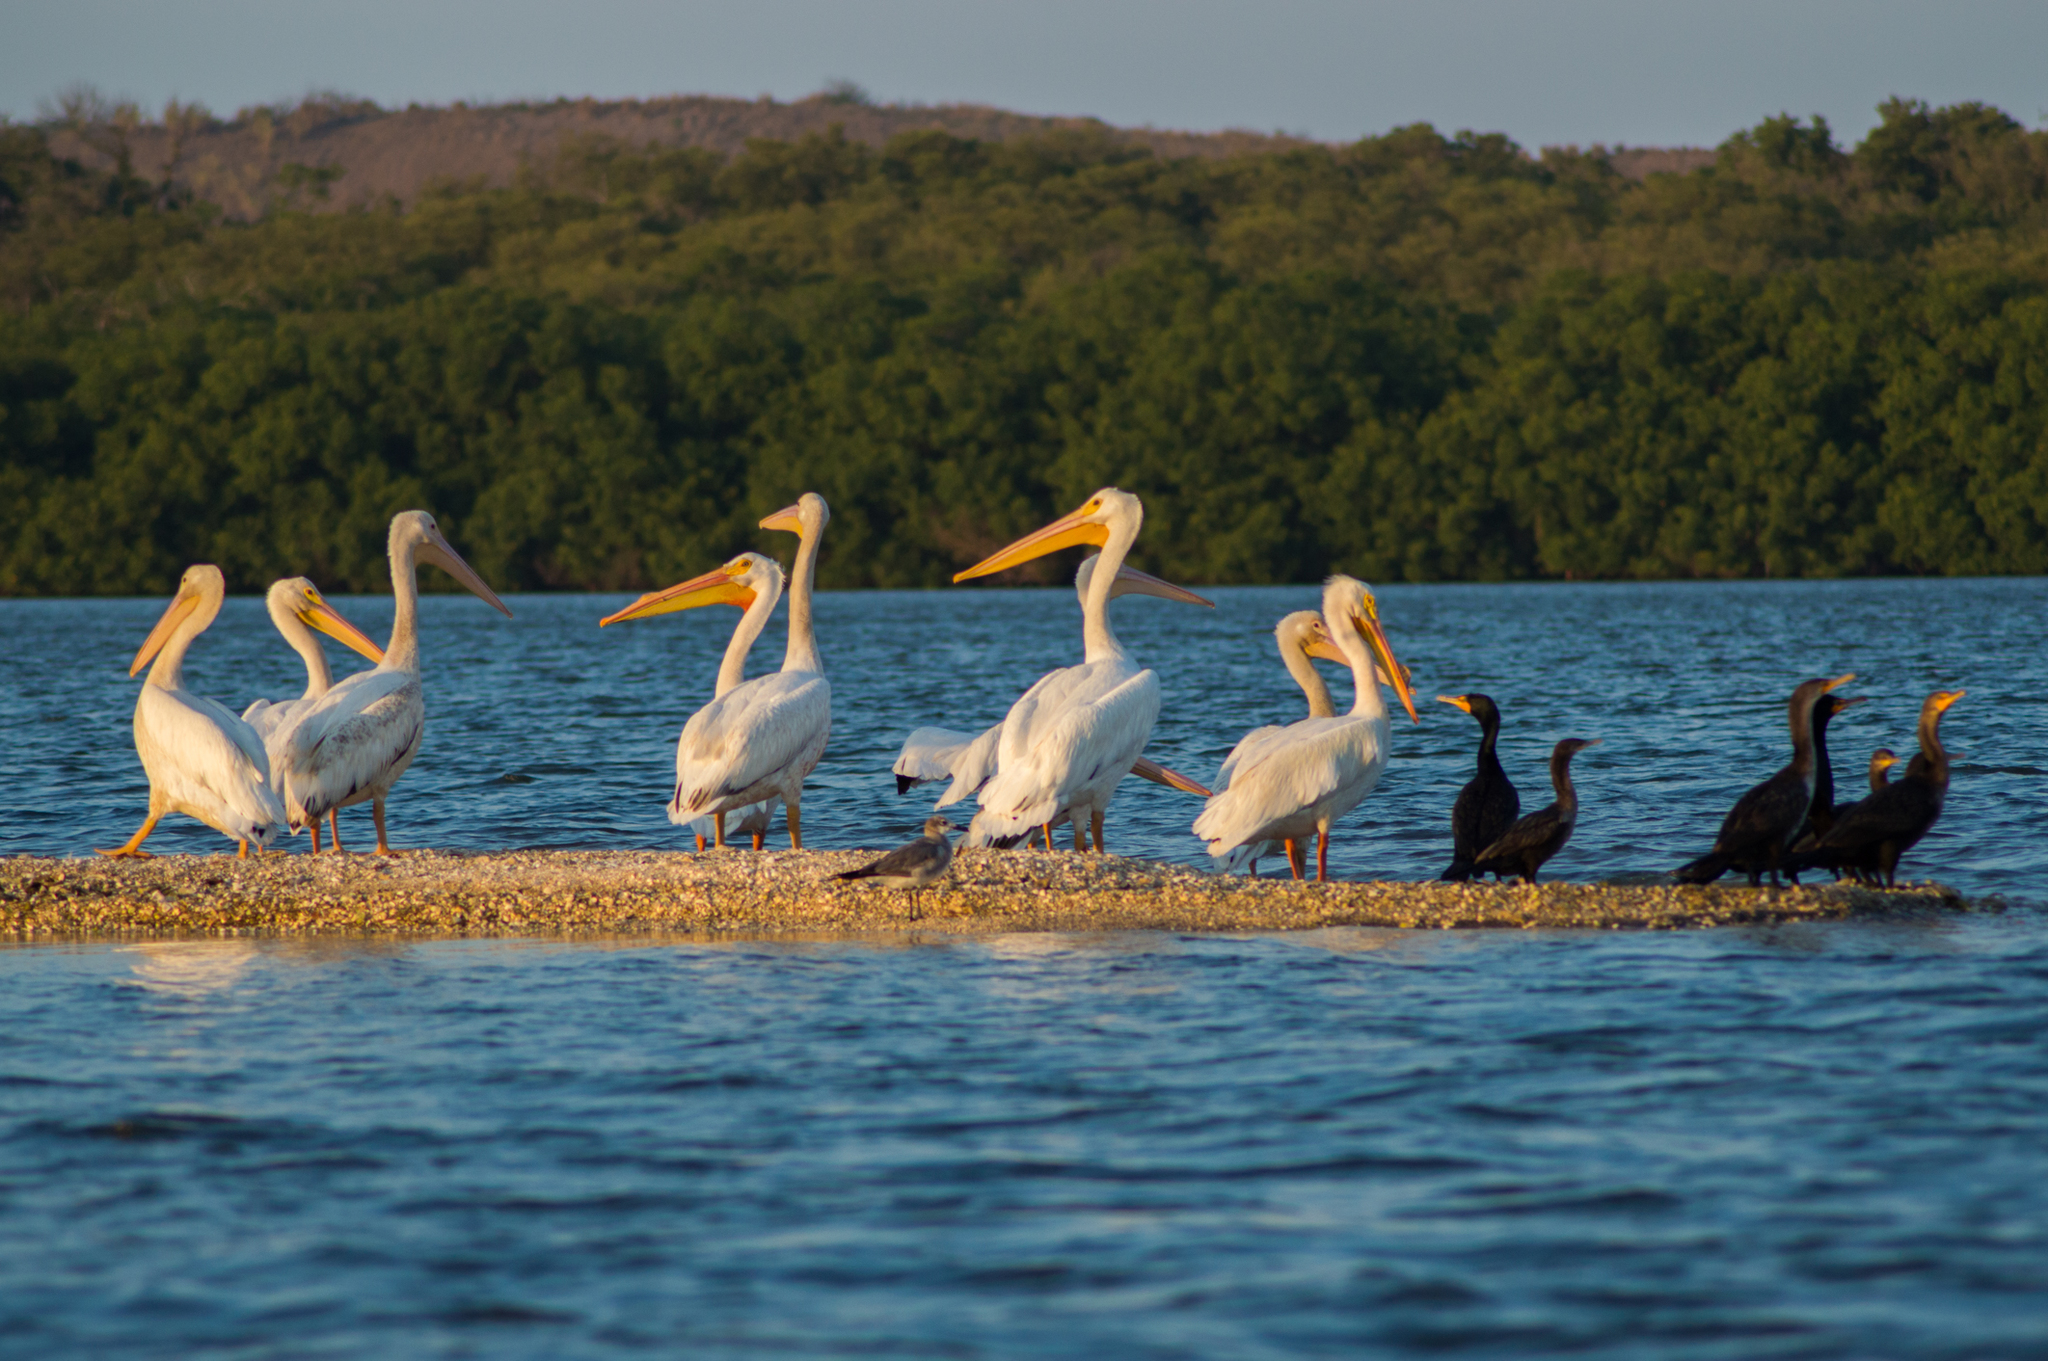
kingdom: Animalia
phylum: Chordata
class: Aves
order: Pelecaniformes
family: Pelecanidae
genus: Pelecanus
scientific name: Pelecanus erythrorhynchos
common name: American white pelican
